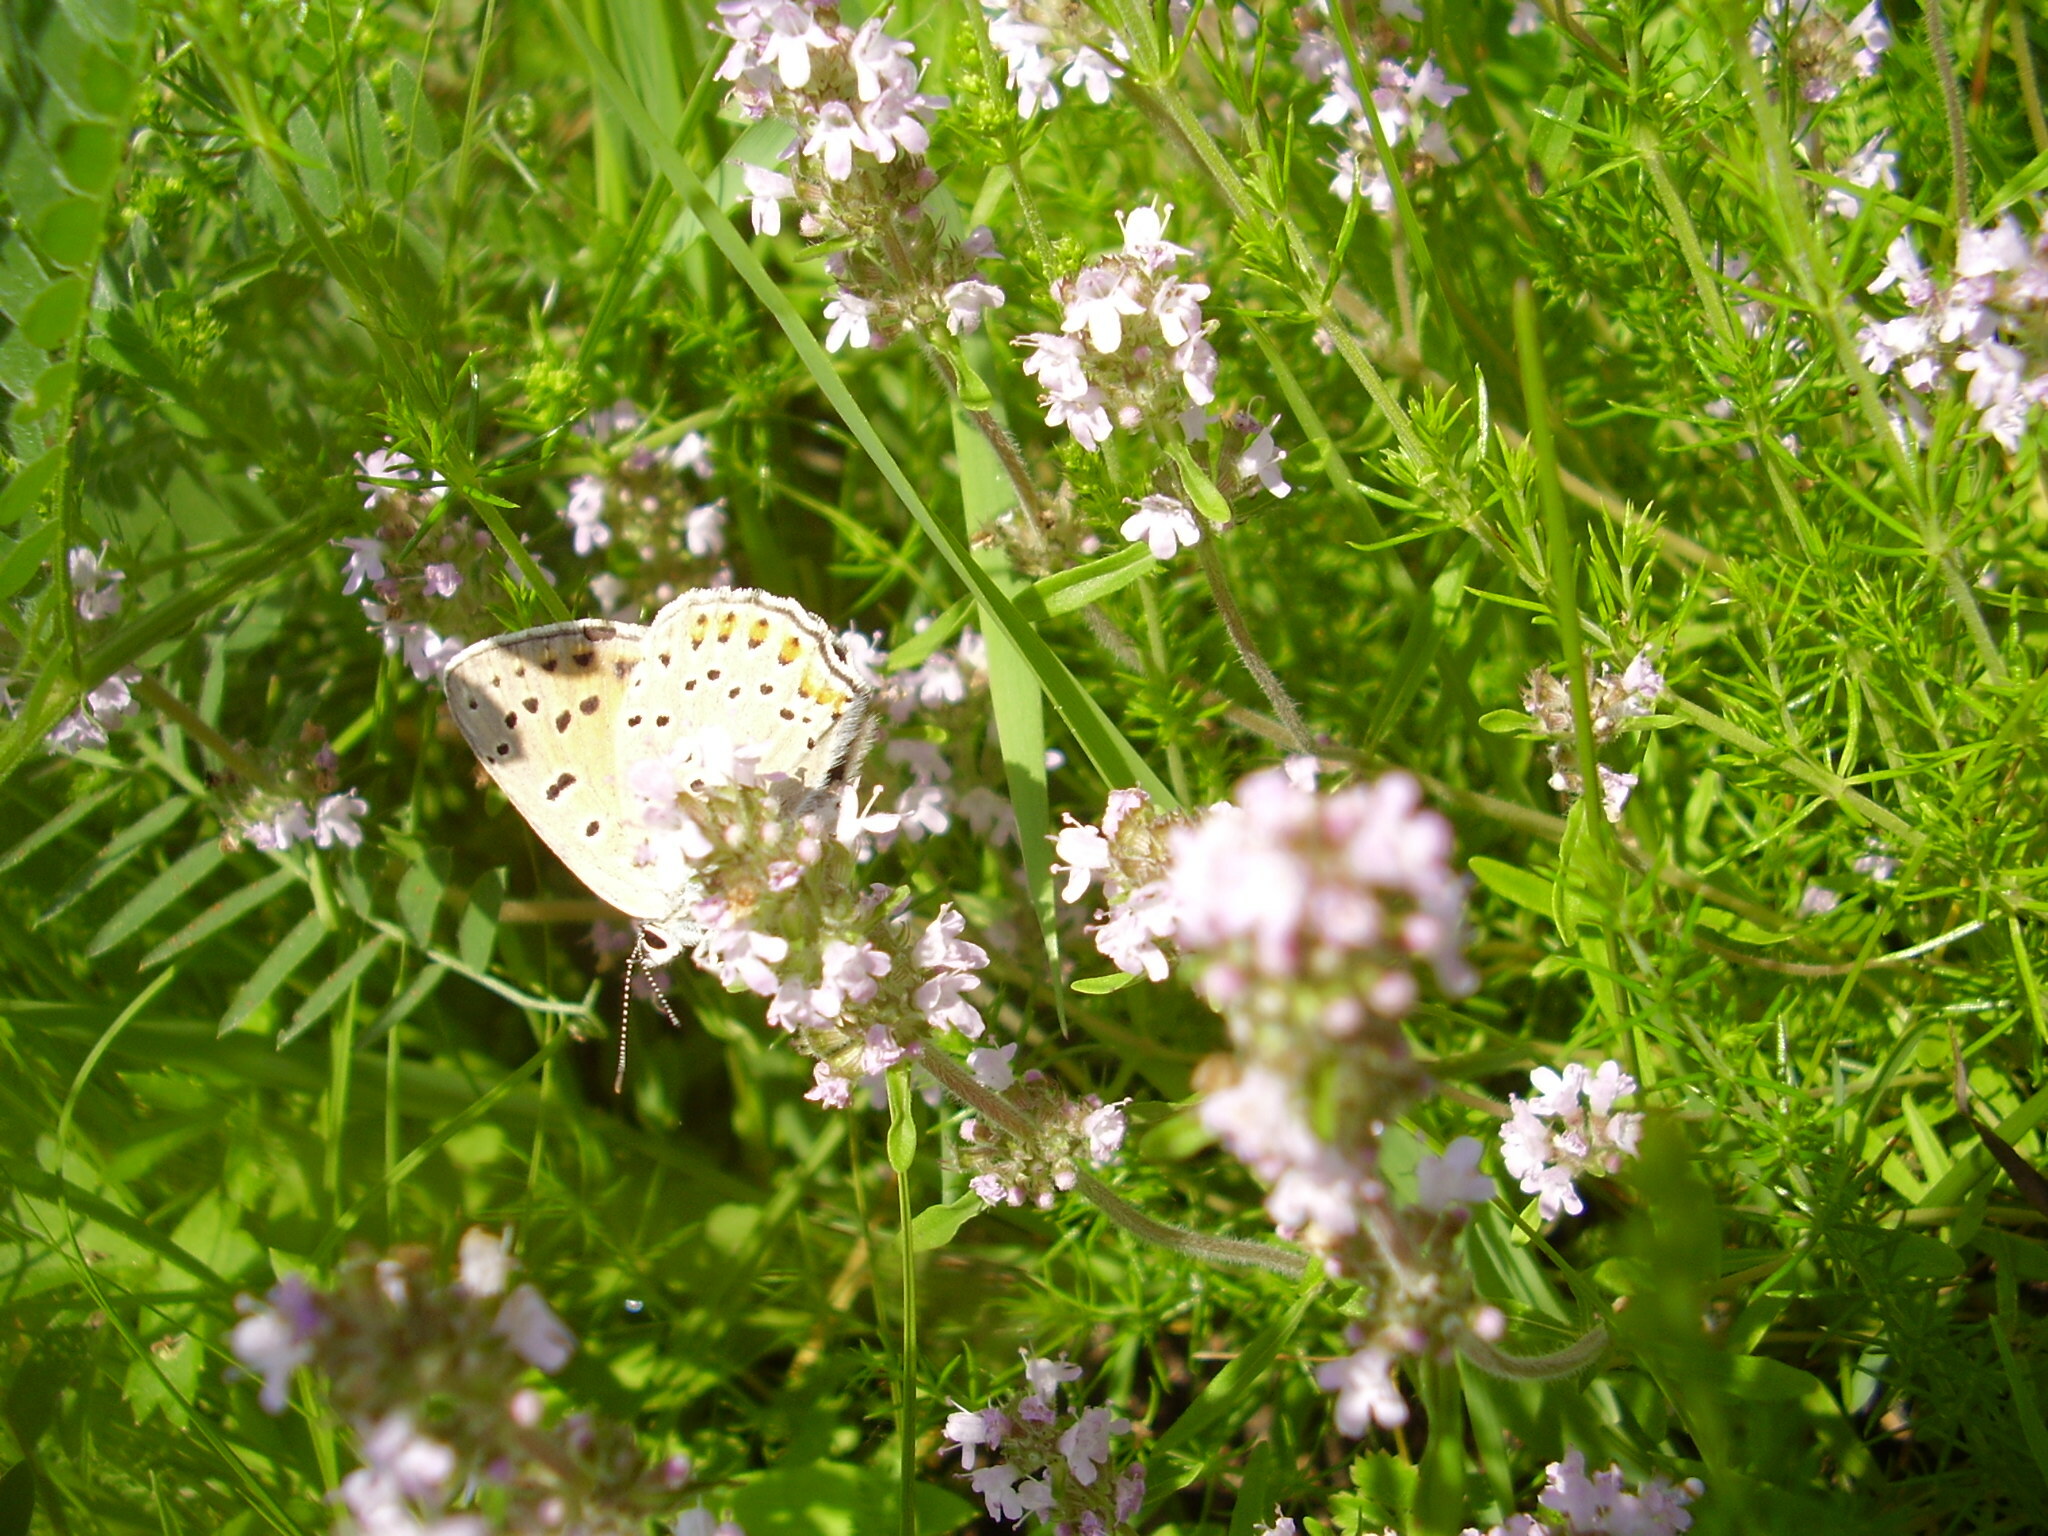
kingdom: Animalia
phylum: Arthropoda
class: Insecta
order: Lepidoptera
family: Lycaenidae
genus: Lycaena
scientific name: Lycaena alciphron
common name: Purple-shot copper
